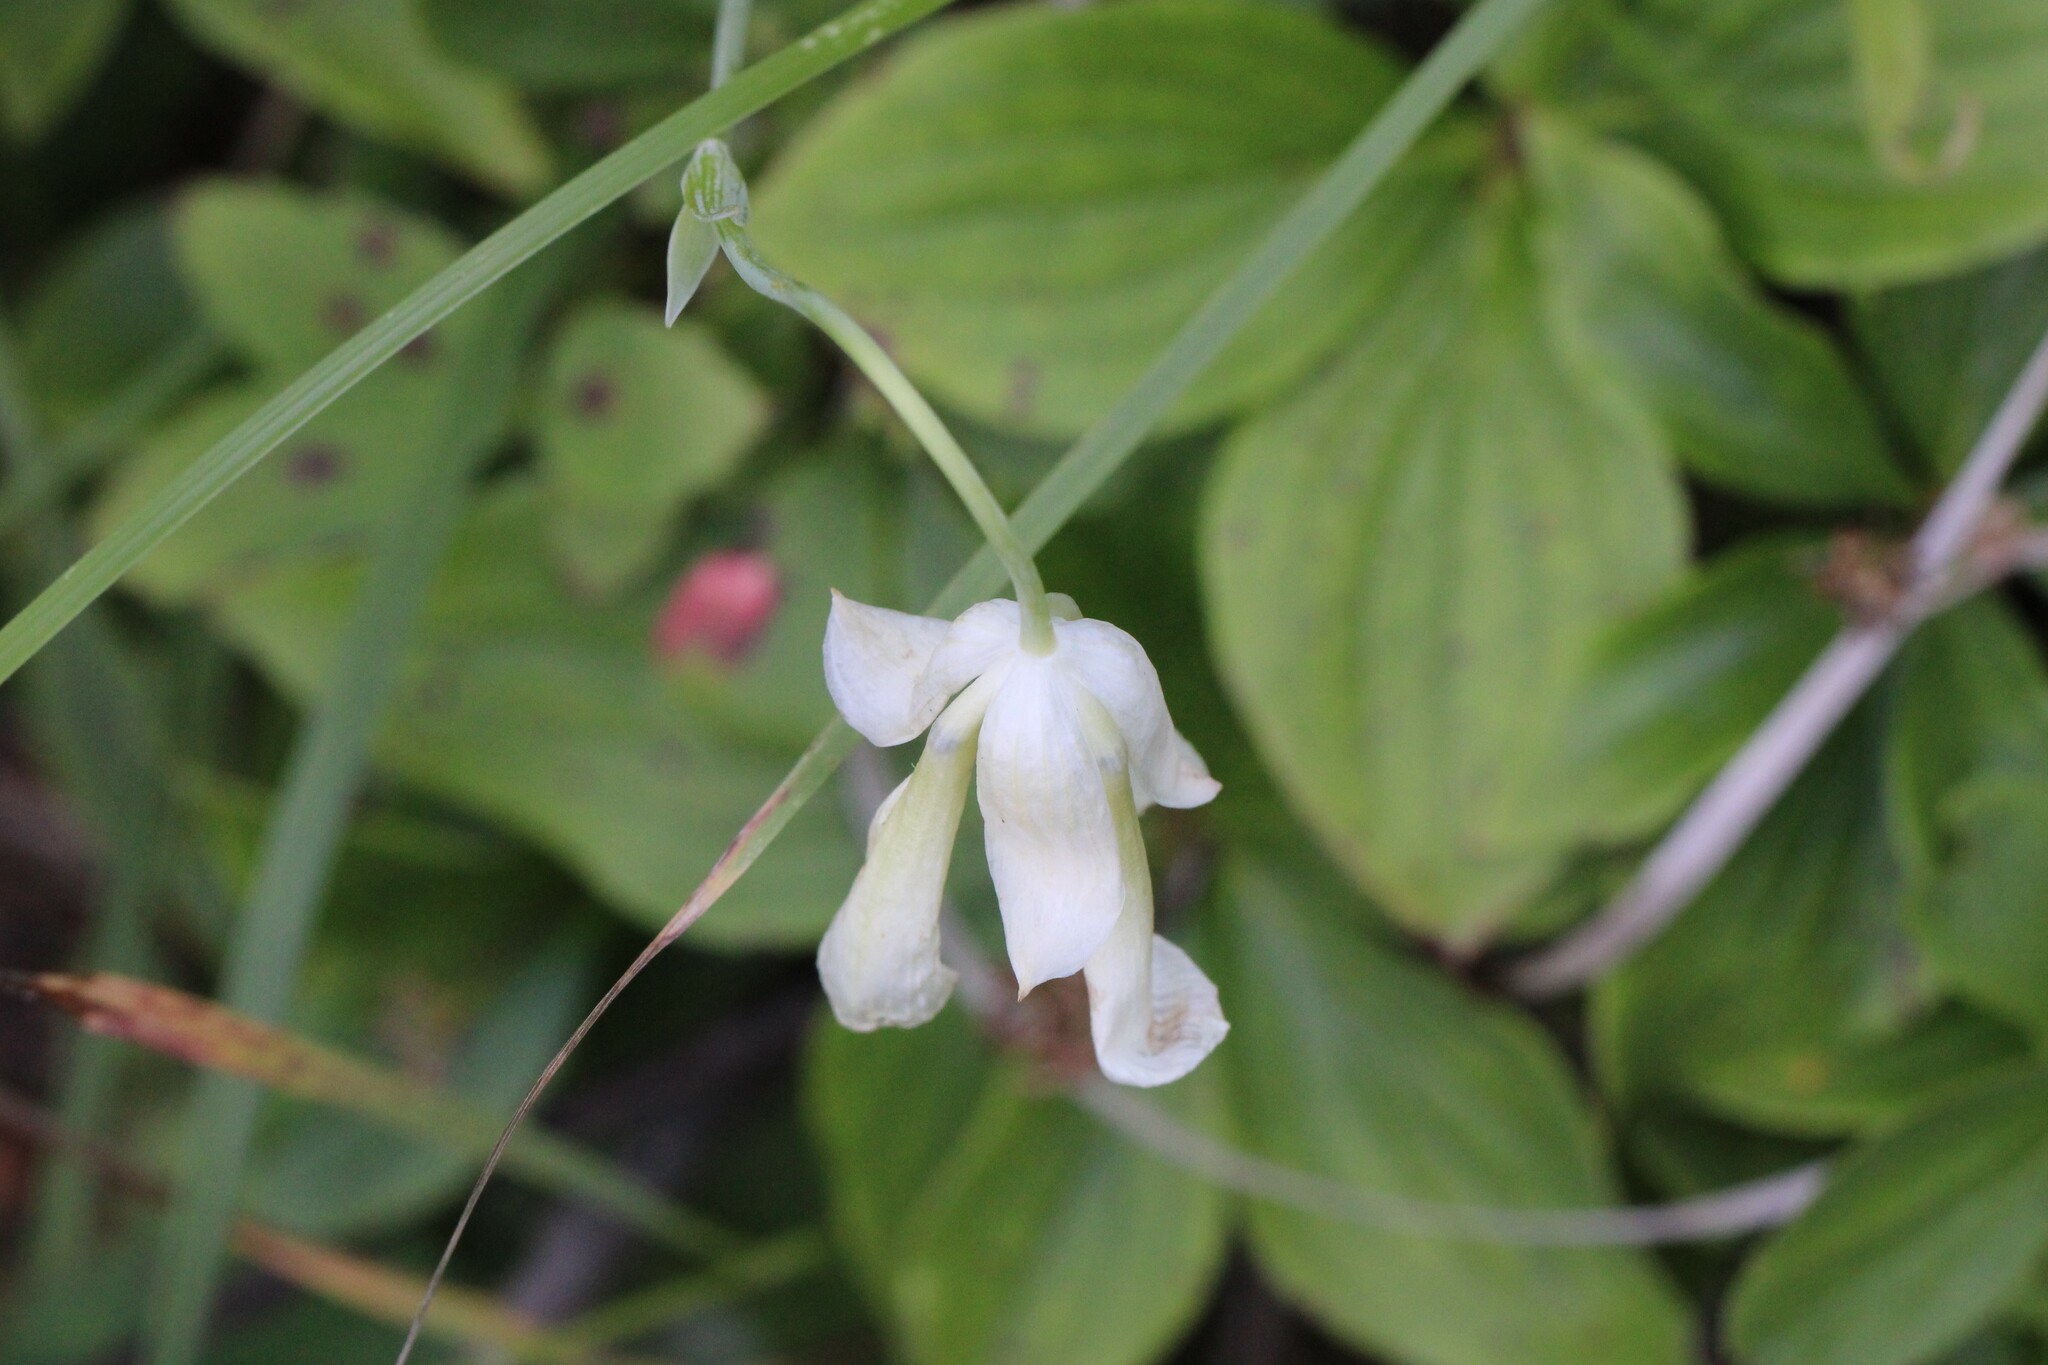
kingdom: Plantae
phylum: Tracheophyta
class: Magnoliopsida
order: Fabales
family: Fabaceae
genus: Lathyrus
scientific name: Lathyrus ochroleucus
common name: Pale vetchling
